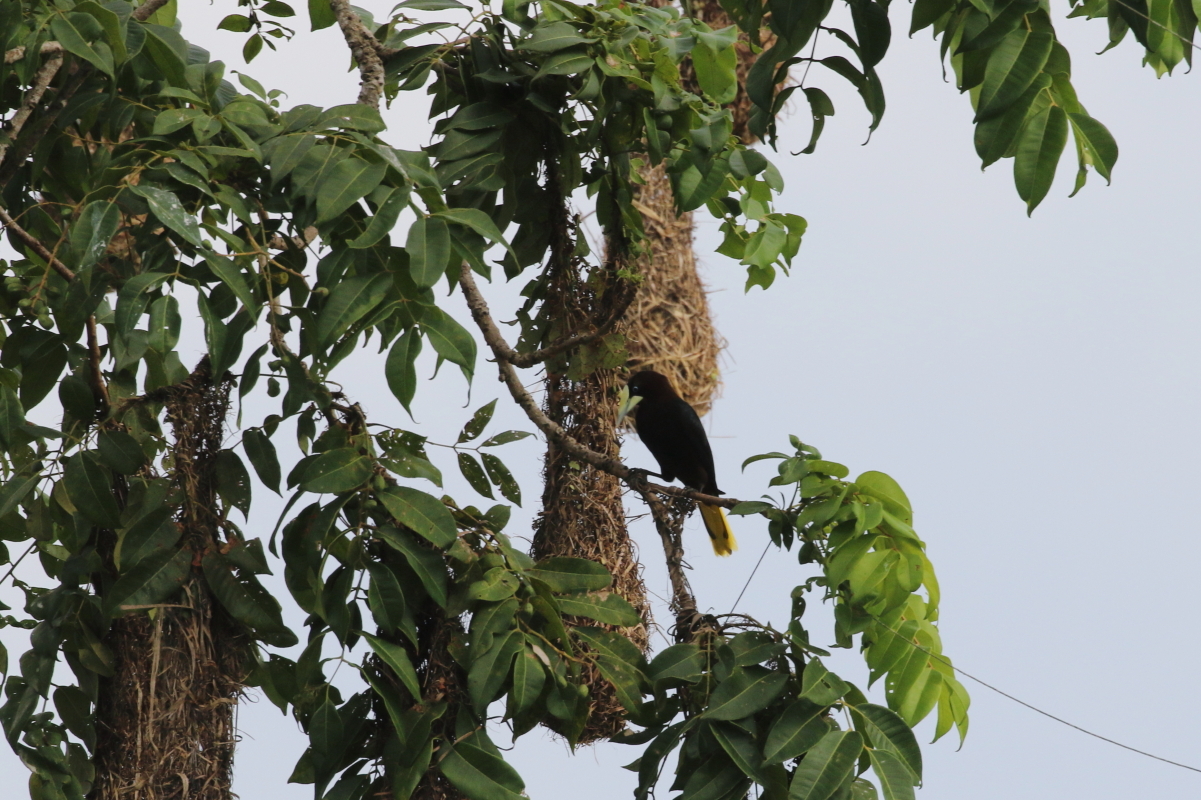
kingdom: Animalia
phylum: Chordata
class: Aves
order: Passeriformes
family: Icteridae
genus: Psarocolius
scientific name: Psarocolius wagleri
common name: Chestnut-headed oropendola
